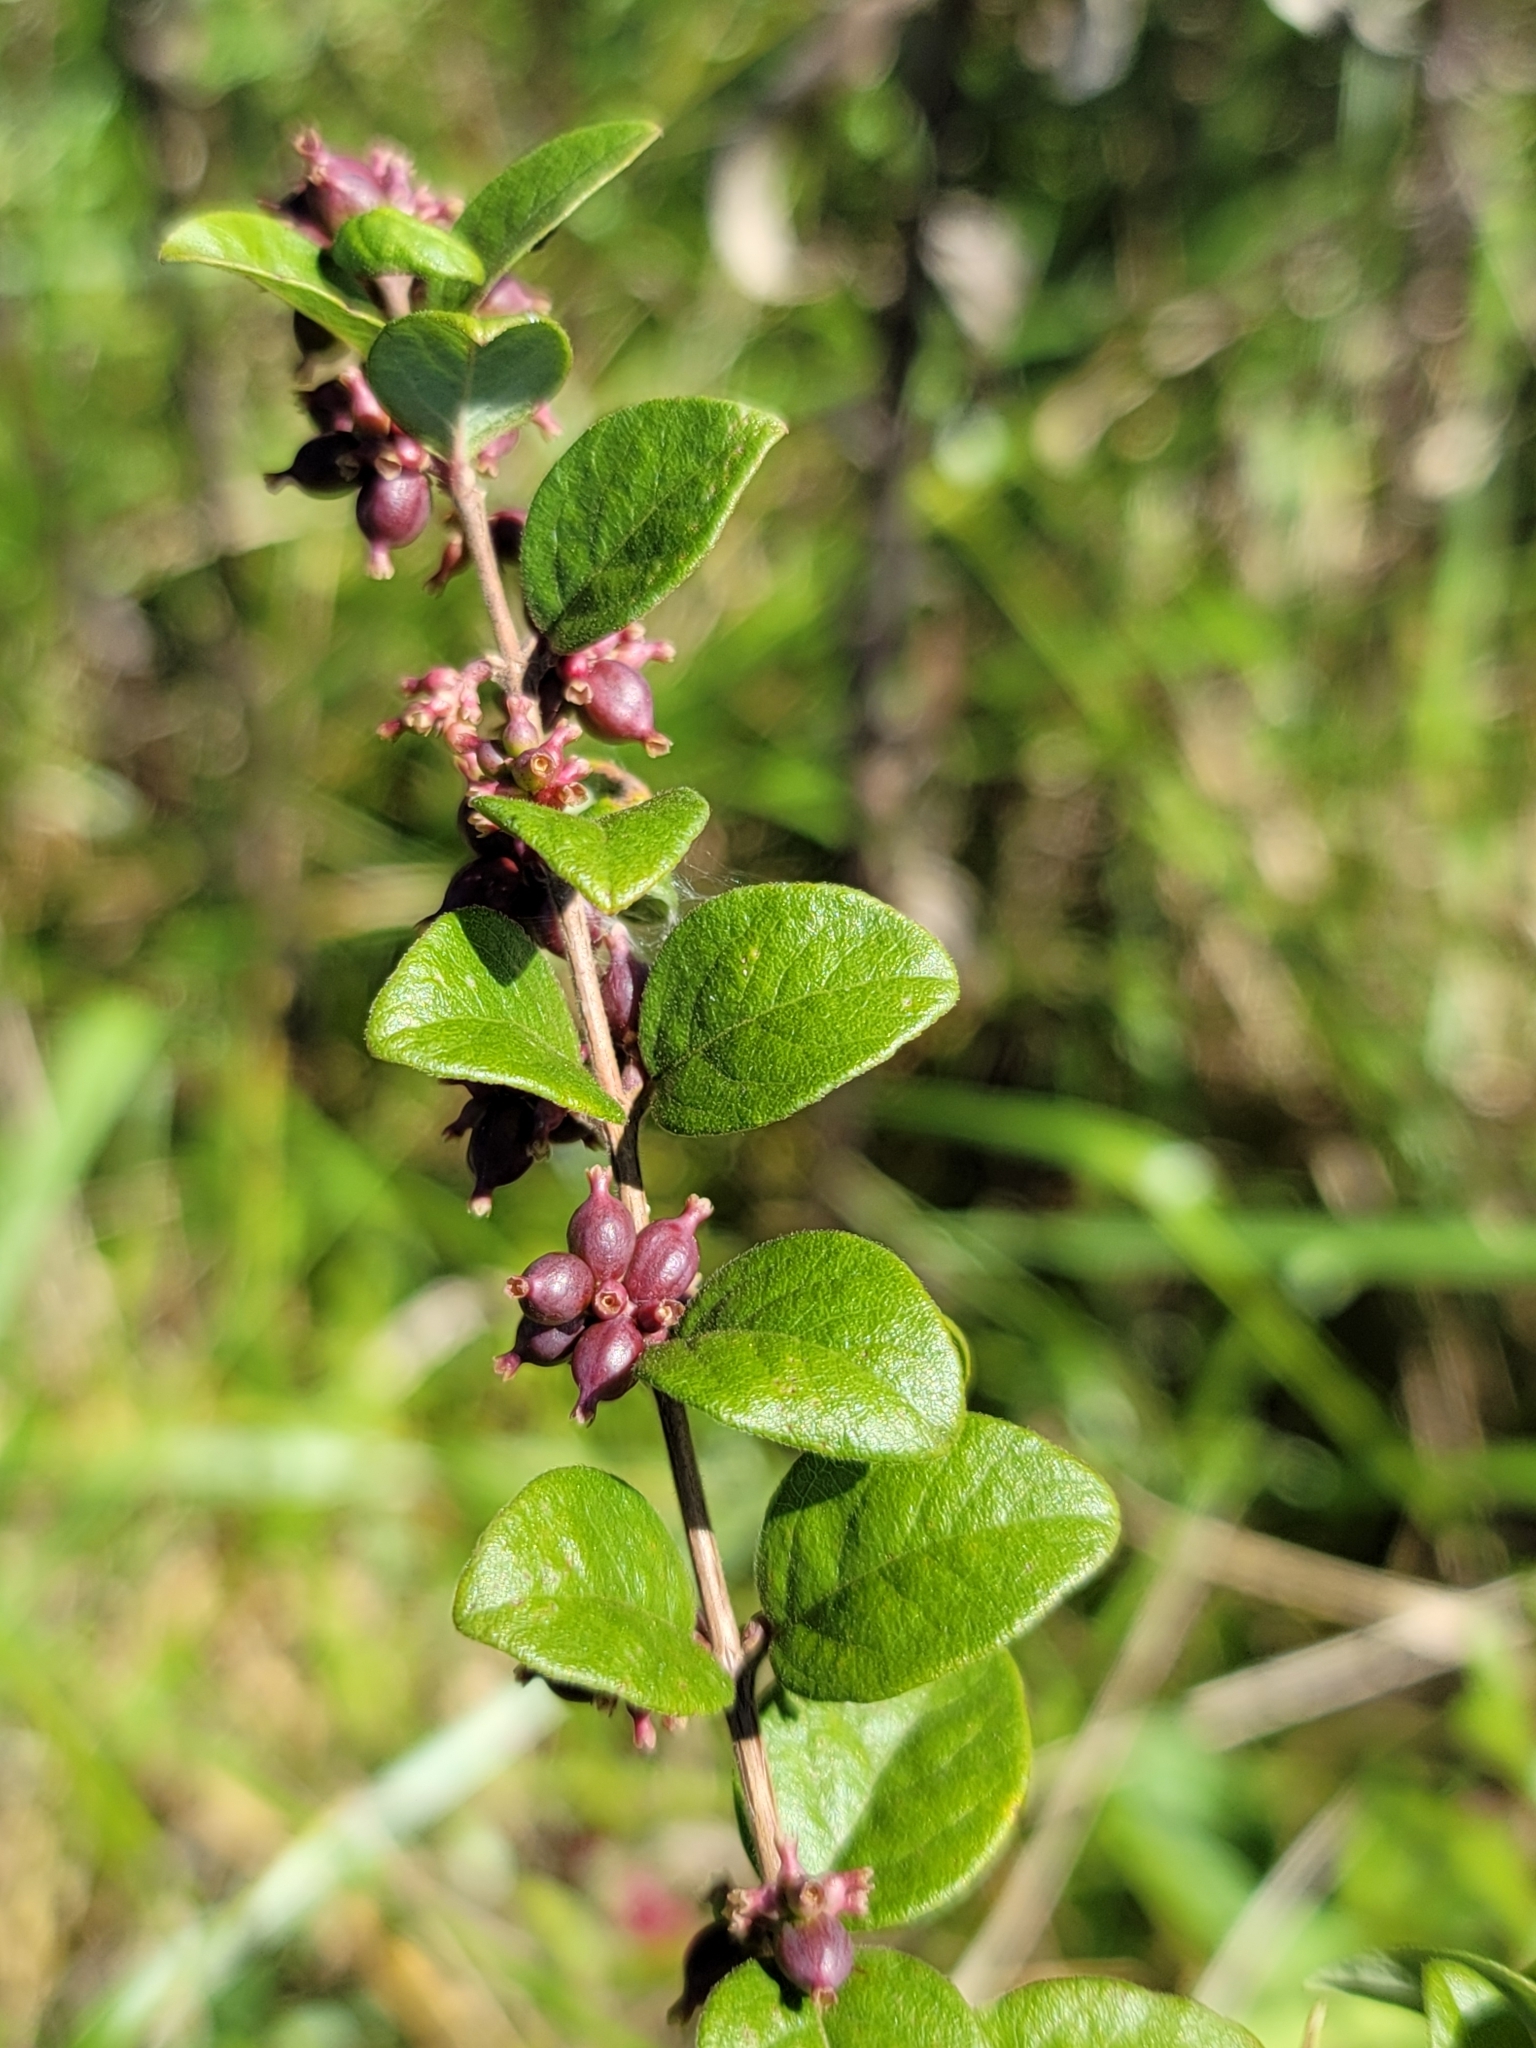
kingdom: Plantae
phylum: Tracheophyta
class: Magnoliopsida
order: Dipsacales
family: Caprifoliaceae
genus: Symphoricarpos
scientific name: Symphoricarpos orbiculatus
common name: Coralberry
